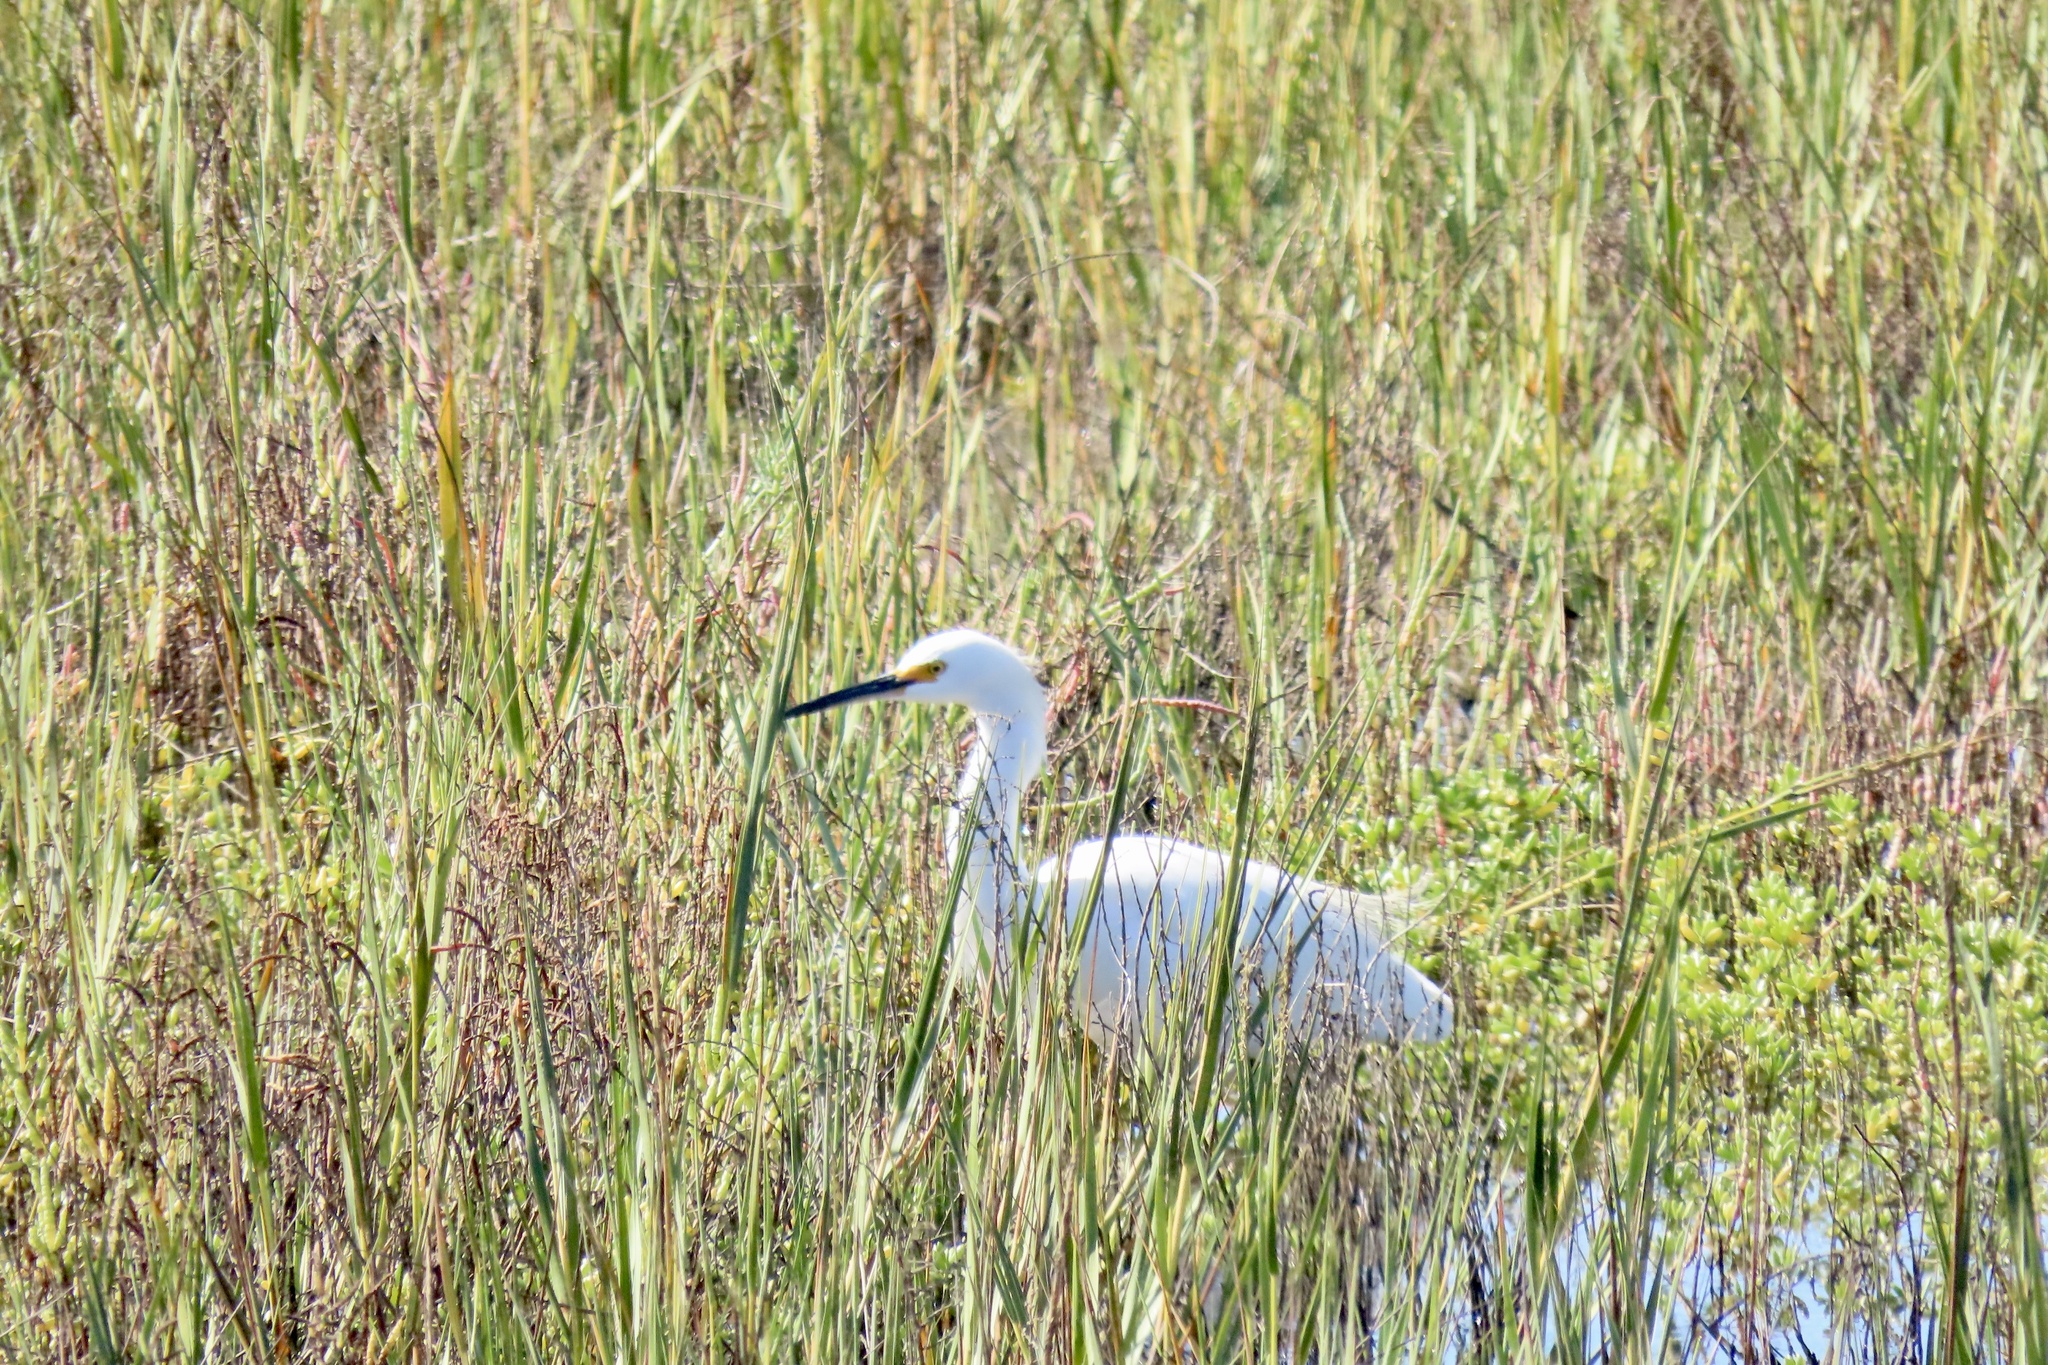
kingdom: Animalia
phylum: Chordata
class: Aves
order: Pelecaniformes
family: Ardeidae
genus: Egretta
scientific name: Egretta thula
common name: Snowy egret
